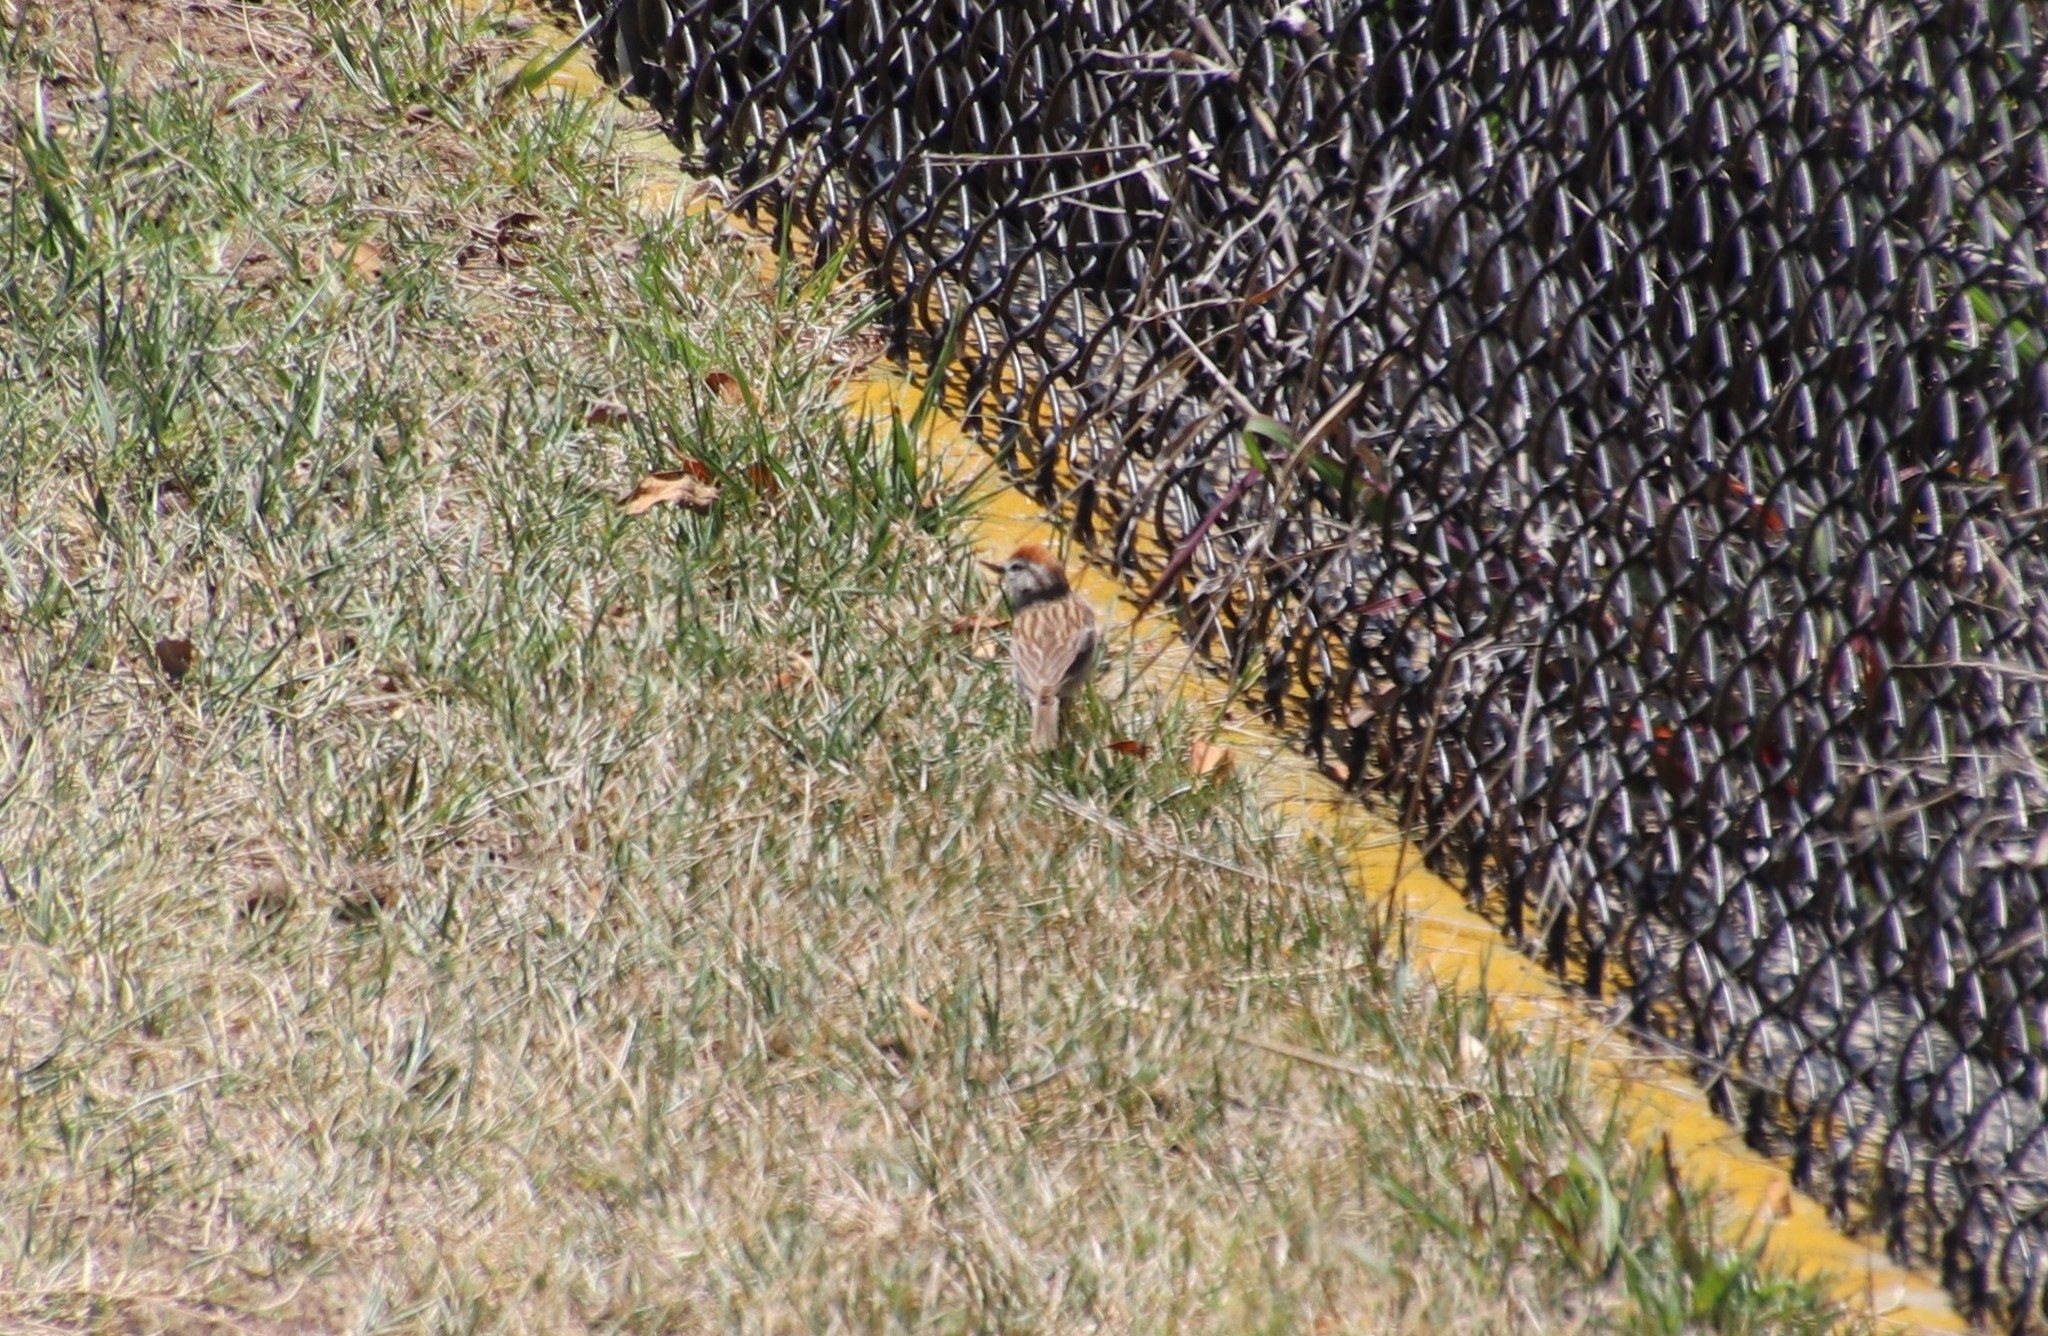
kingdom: Animalia
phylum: Chordata
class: Aves
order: Passeriformes
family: Passerellidae
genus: Spizella
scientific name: Spizella passerina
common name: Chipping sparrow
